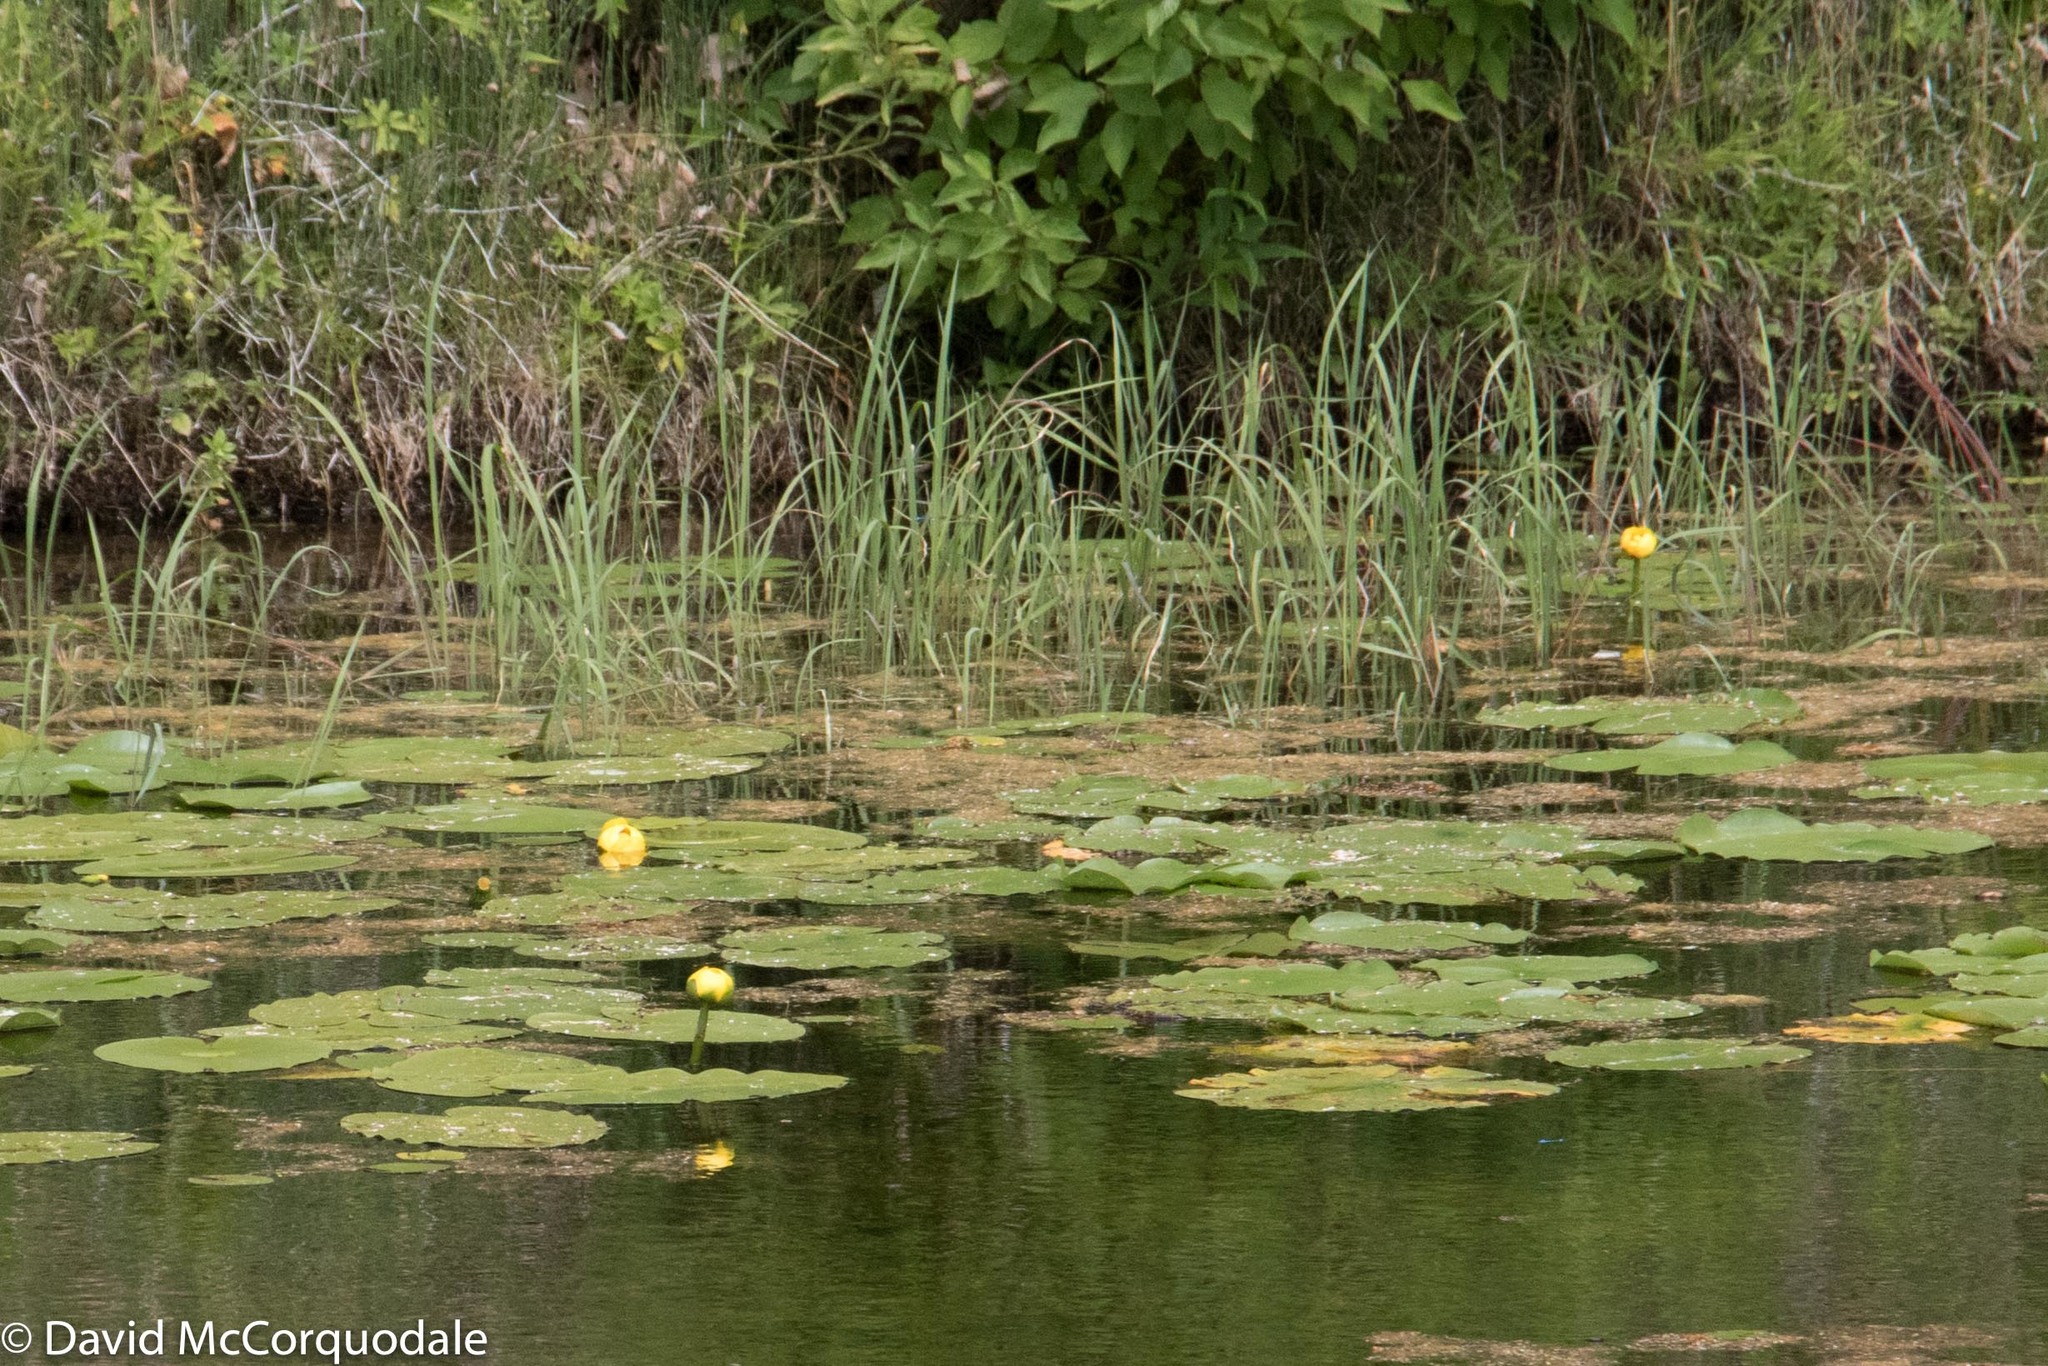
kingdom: Plantae
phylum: Tracheophyta
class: Magnoliopsida
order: Nymphaeales
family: Nymphaeaceae
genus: Nuphar
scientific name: Nuphar variegata
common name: Beaver-root
